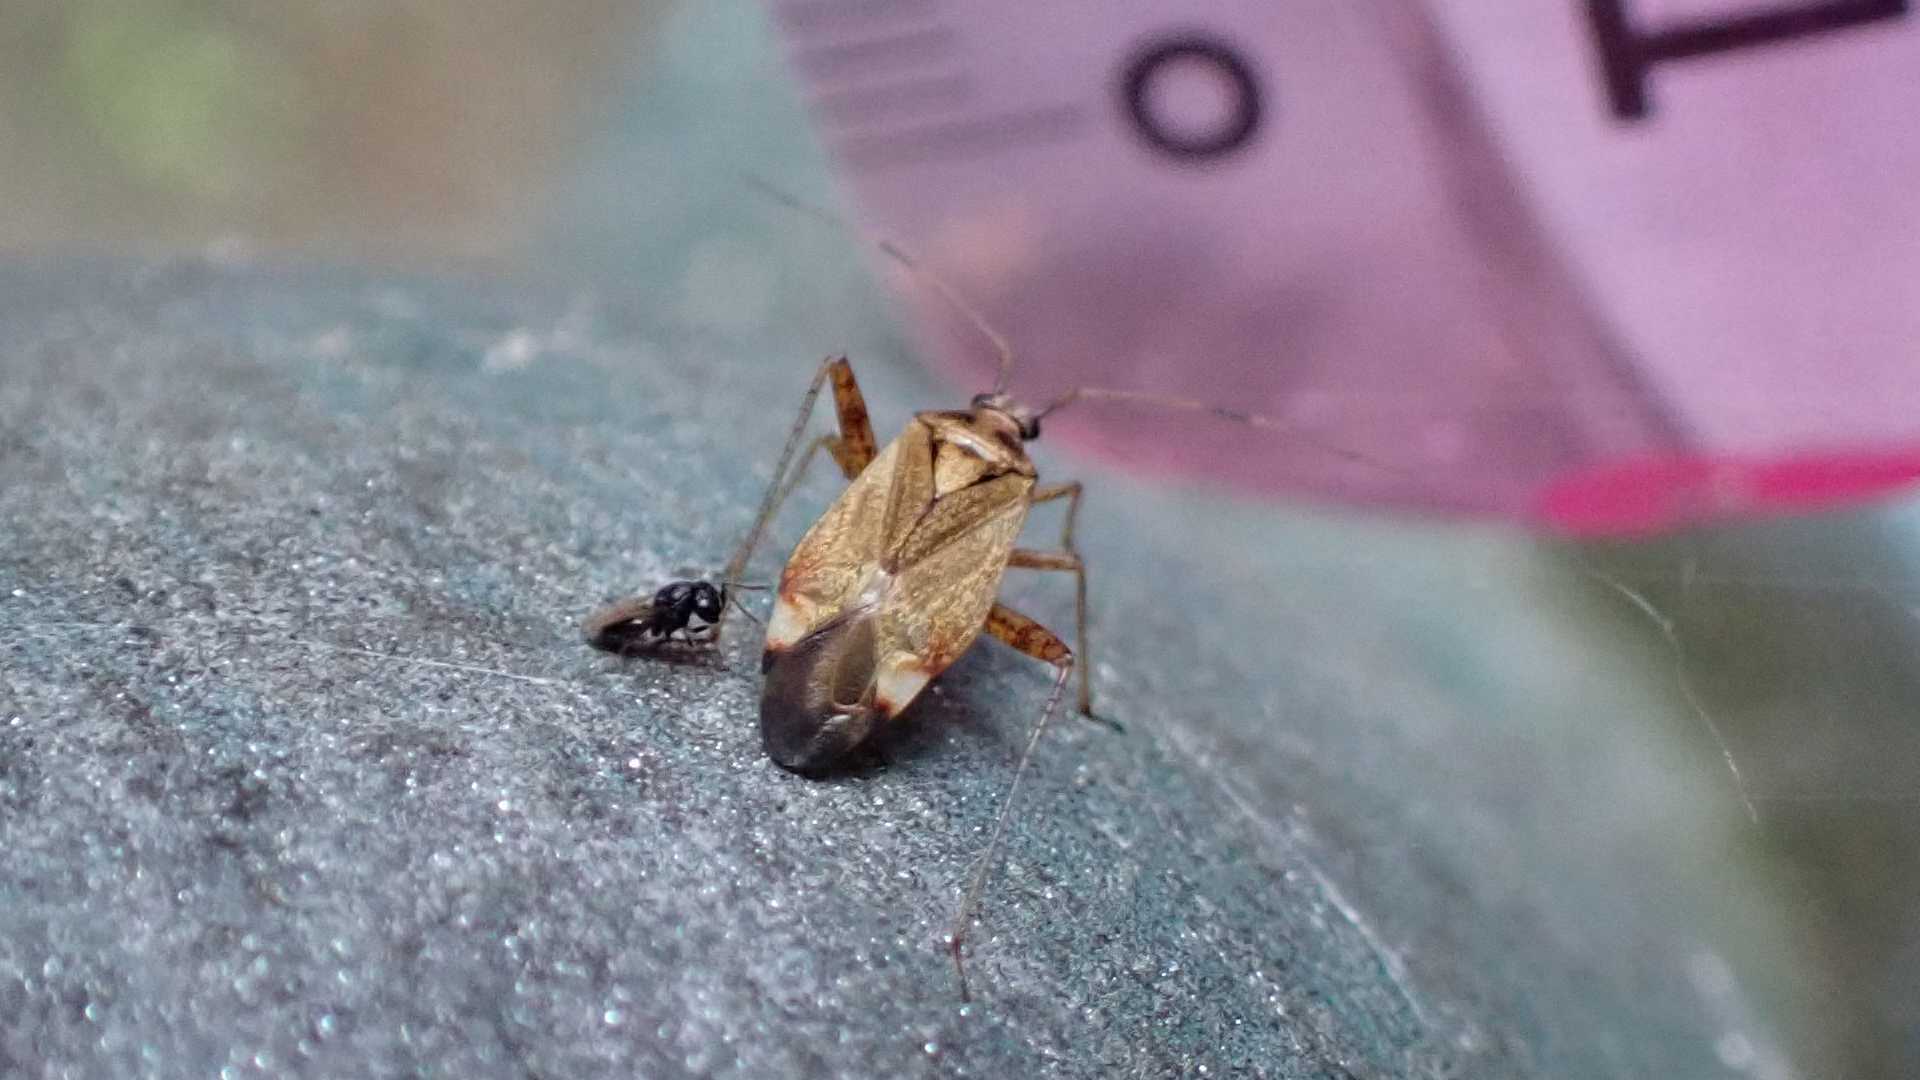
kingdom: Animalia
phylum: Arthropoda
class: Insecta
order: Hemiptera
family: Miridae
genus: Closterotomus
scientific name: Closterotomus fulvomaculatus
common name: Spotted plant bug
